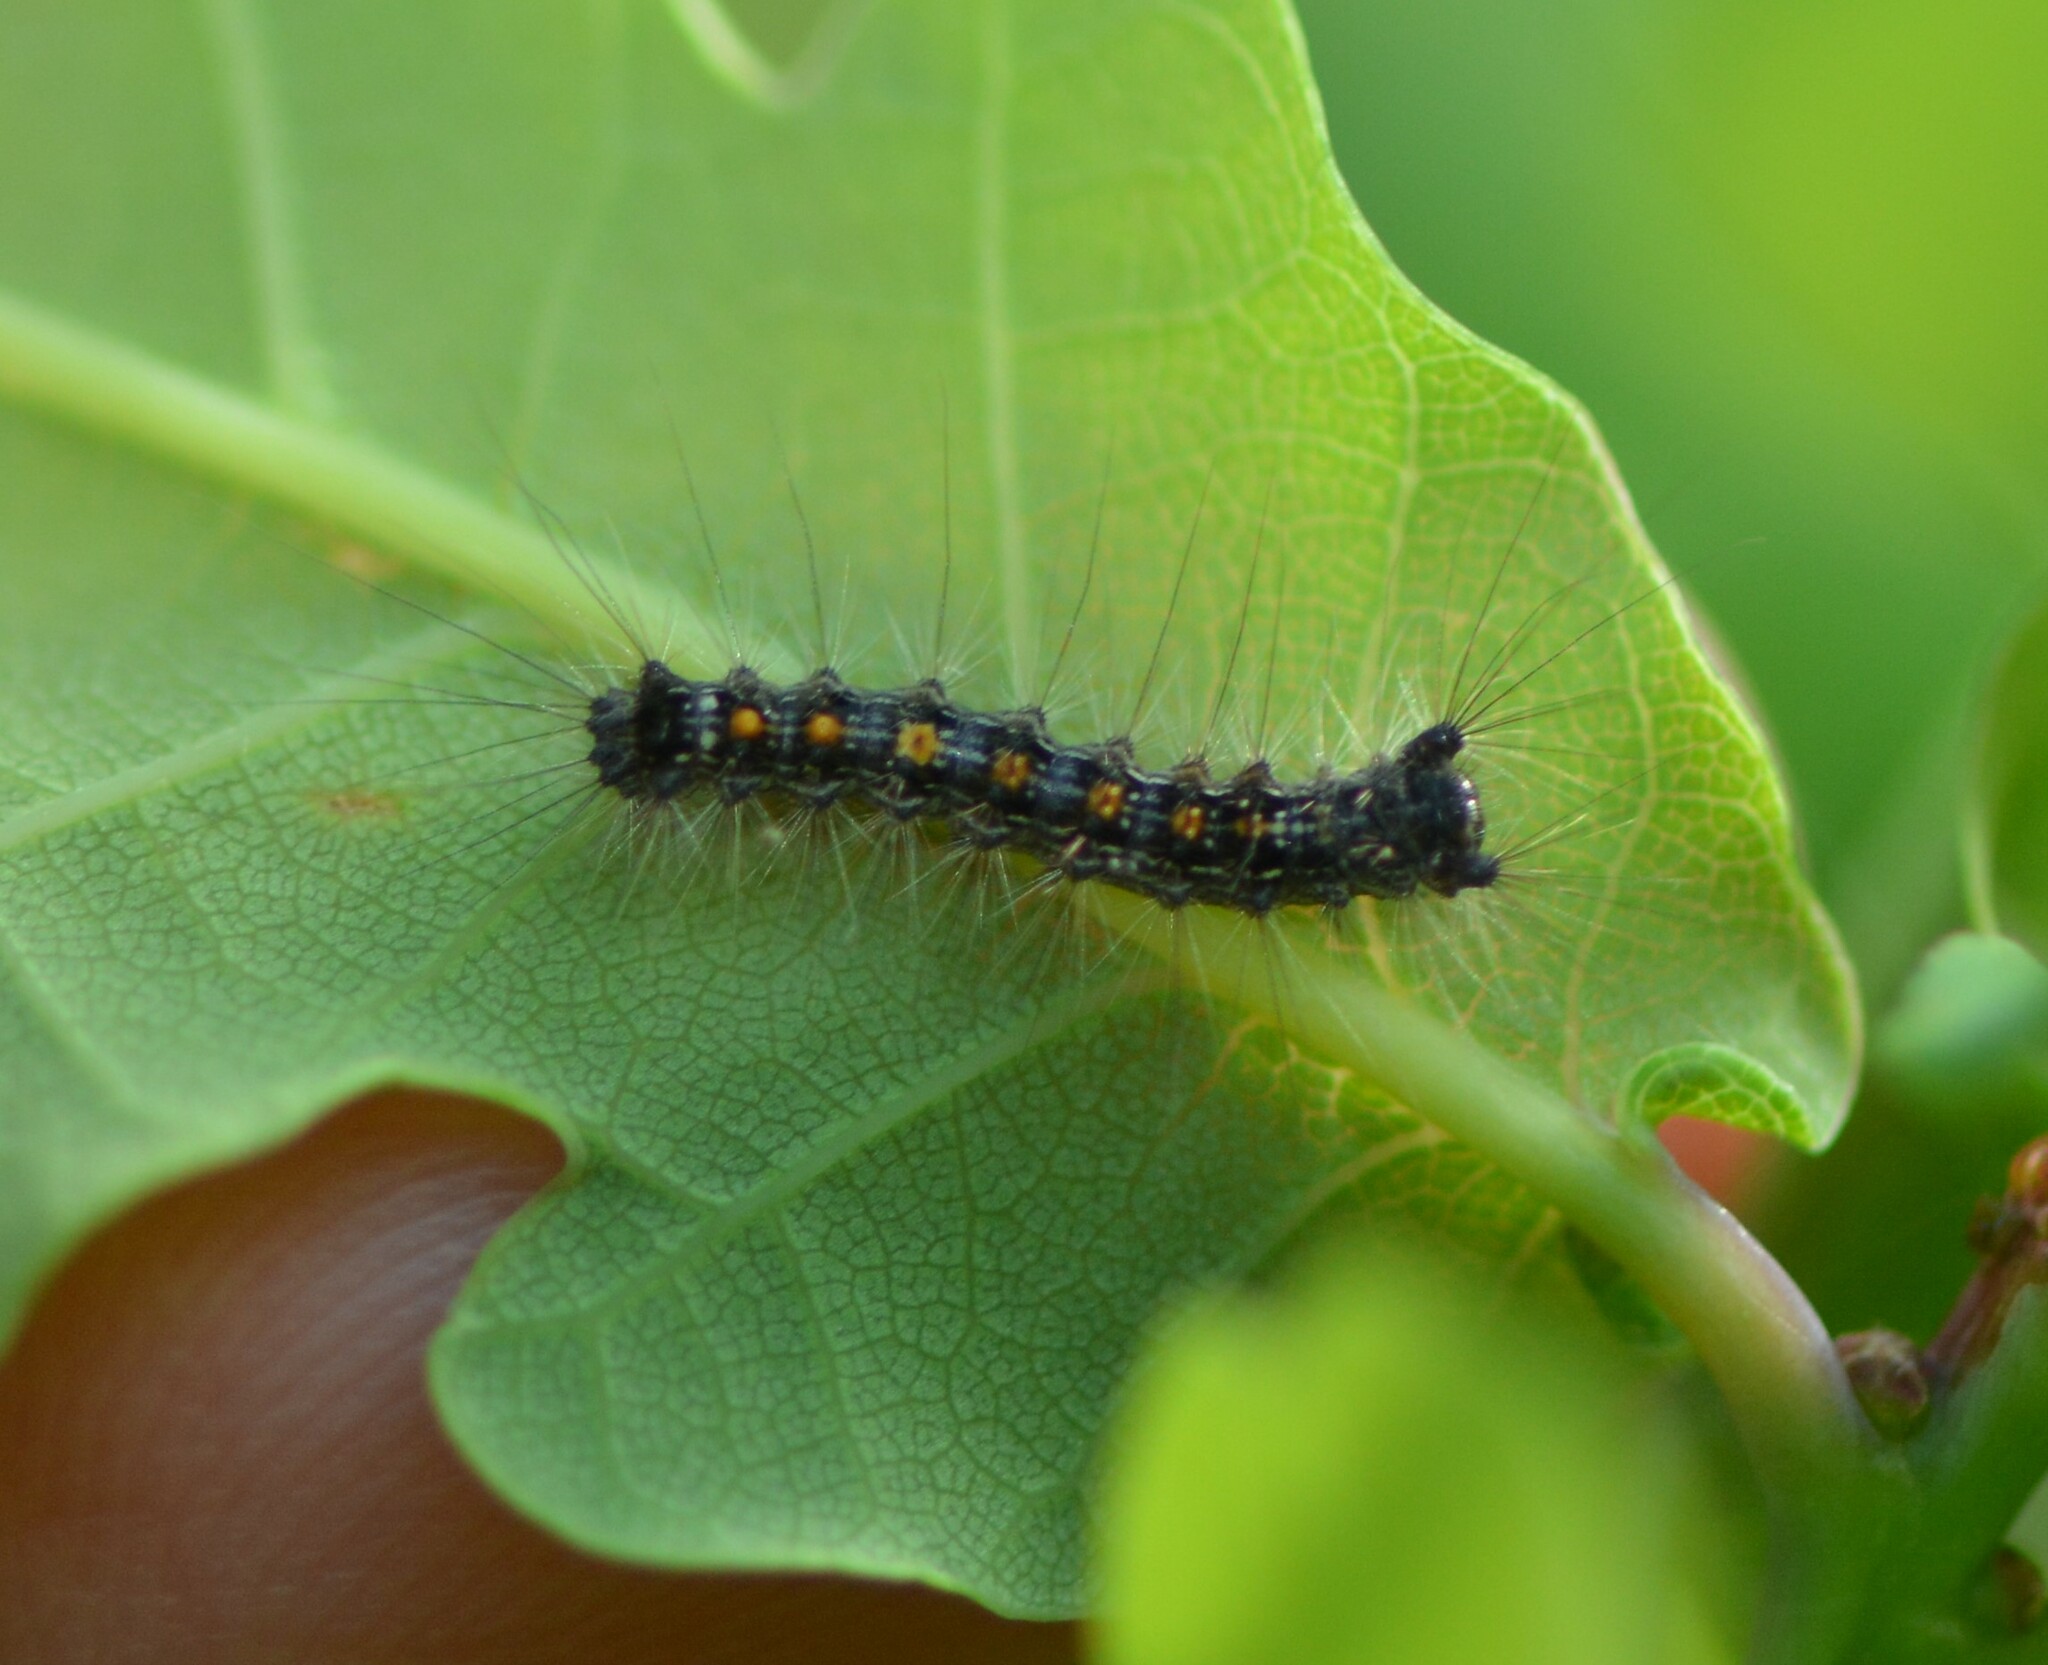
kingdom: Animalia
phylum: Arthropoda
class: Insecta
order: Lepidoptera
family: Erebidae
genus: Lymantria
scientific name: Lymantria dispar
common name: Gypsy moth
